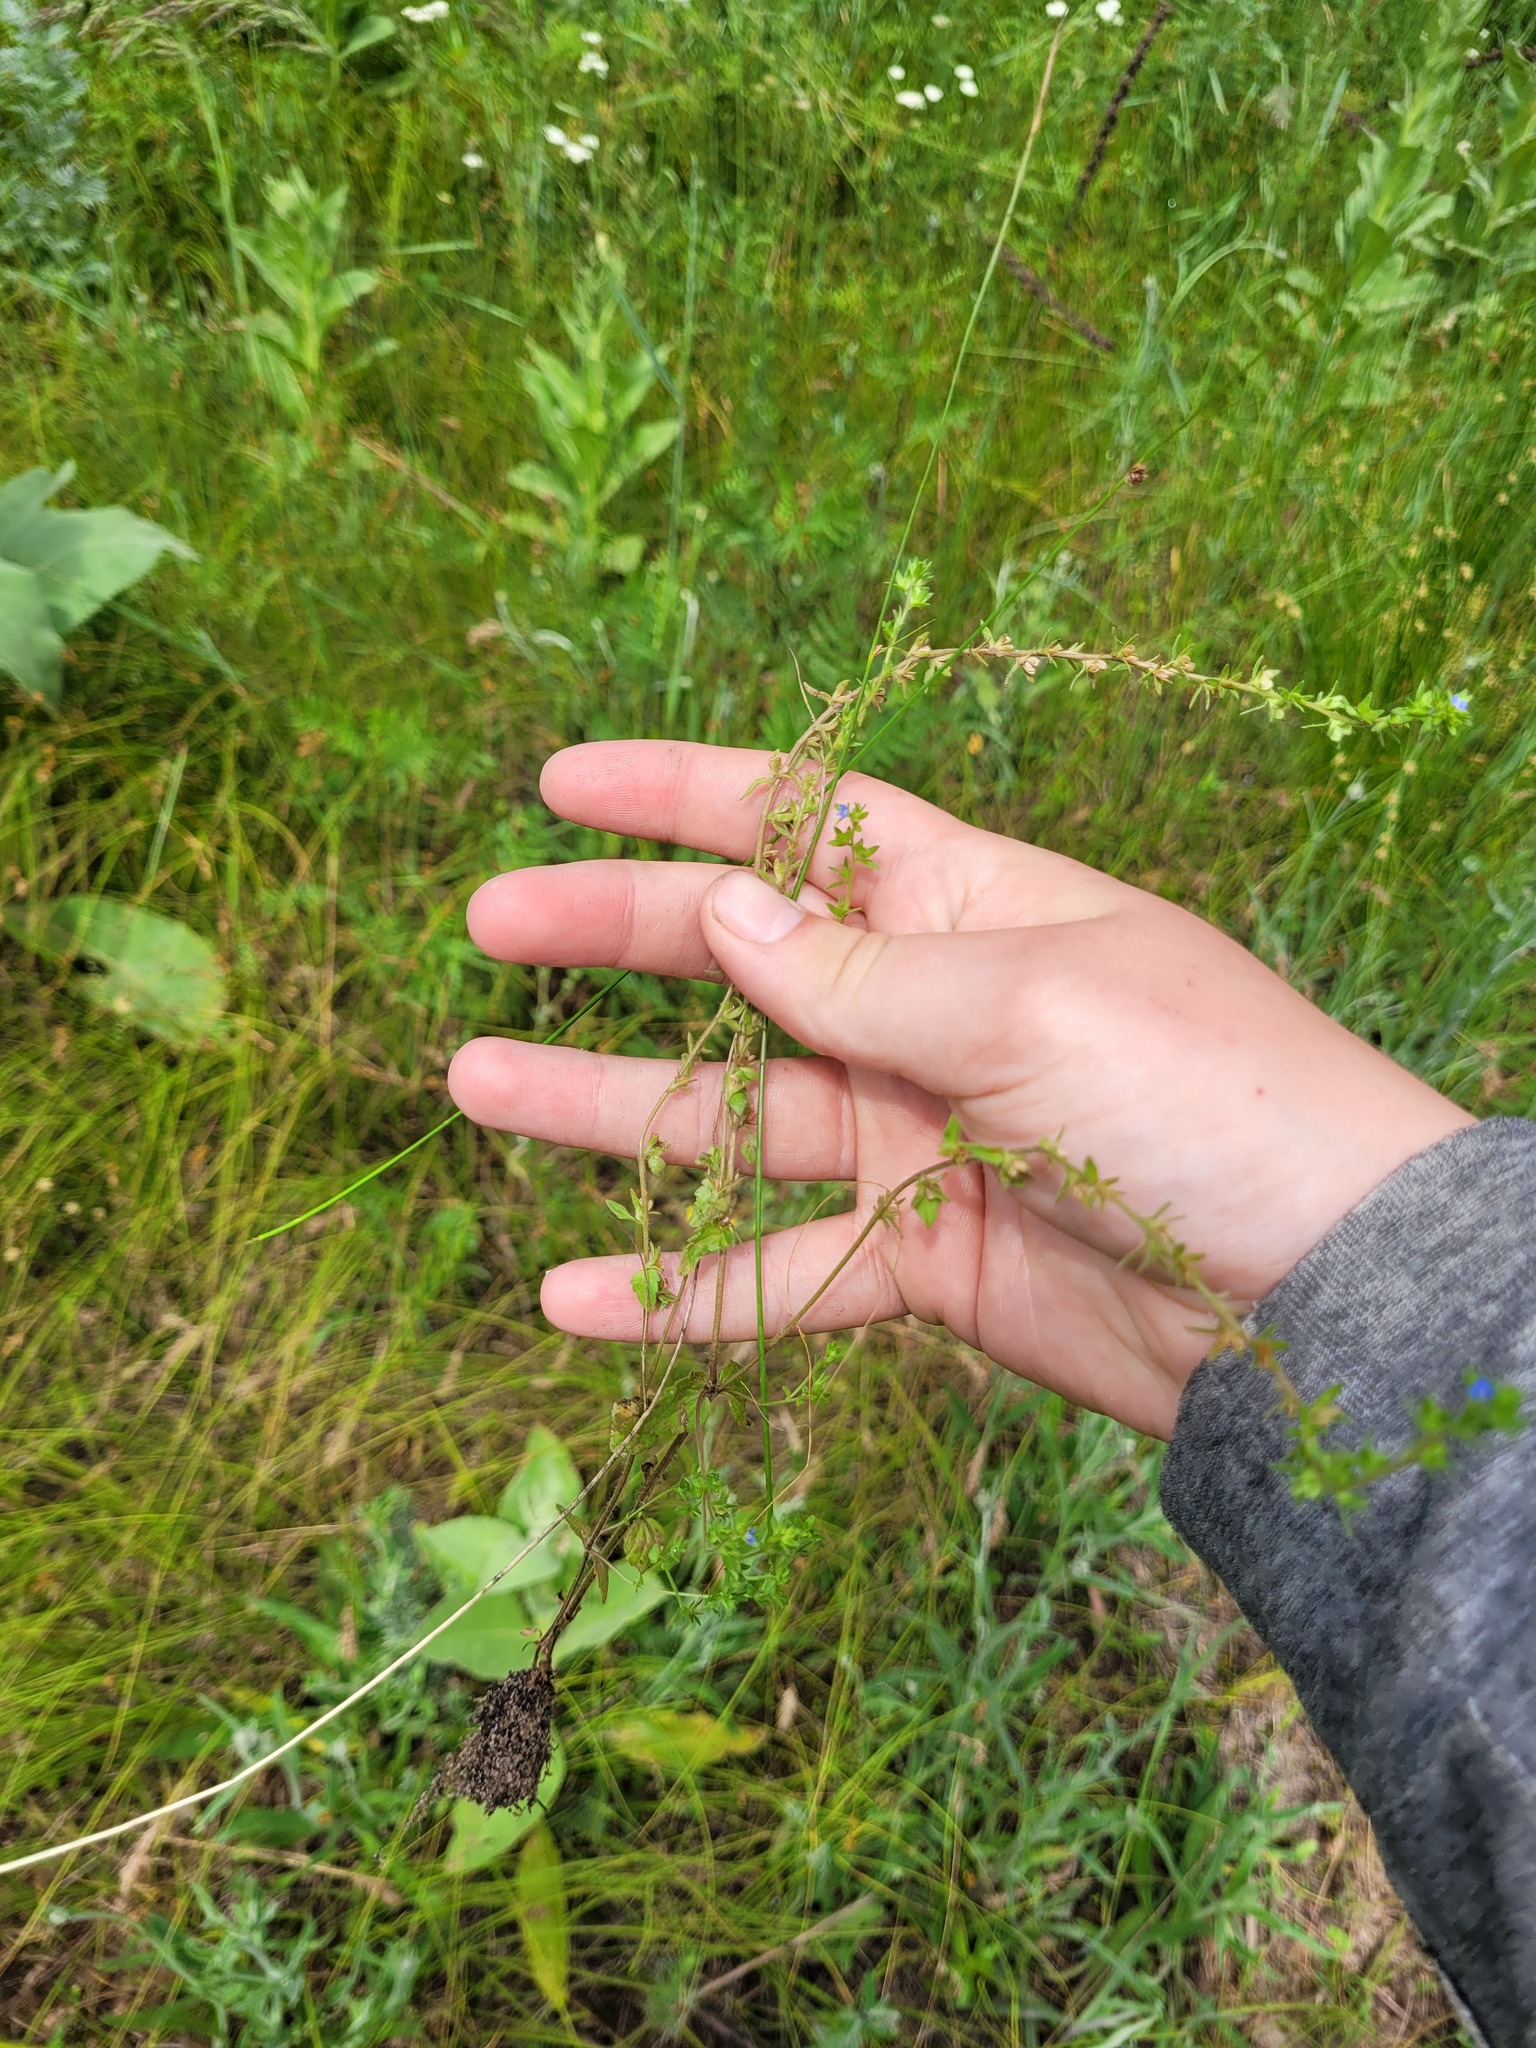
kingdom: Plantae
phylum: Tracheophyta
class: Magnoliopsida
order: Lamiales
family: Plantaginaceae
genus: Veronica
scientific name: Veronica arvensis
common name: Corn speedwell
